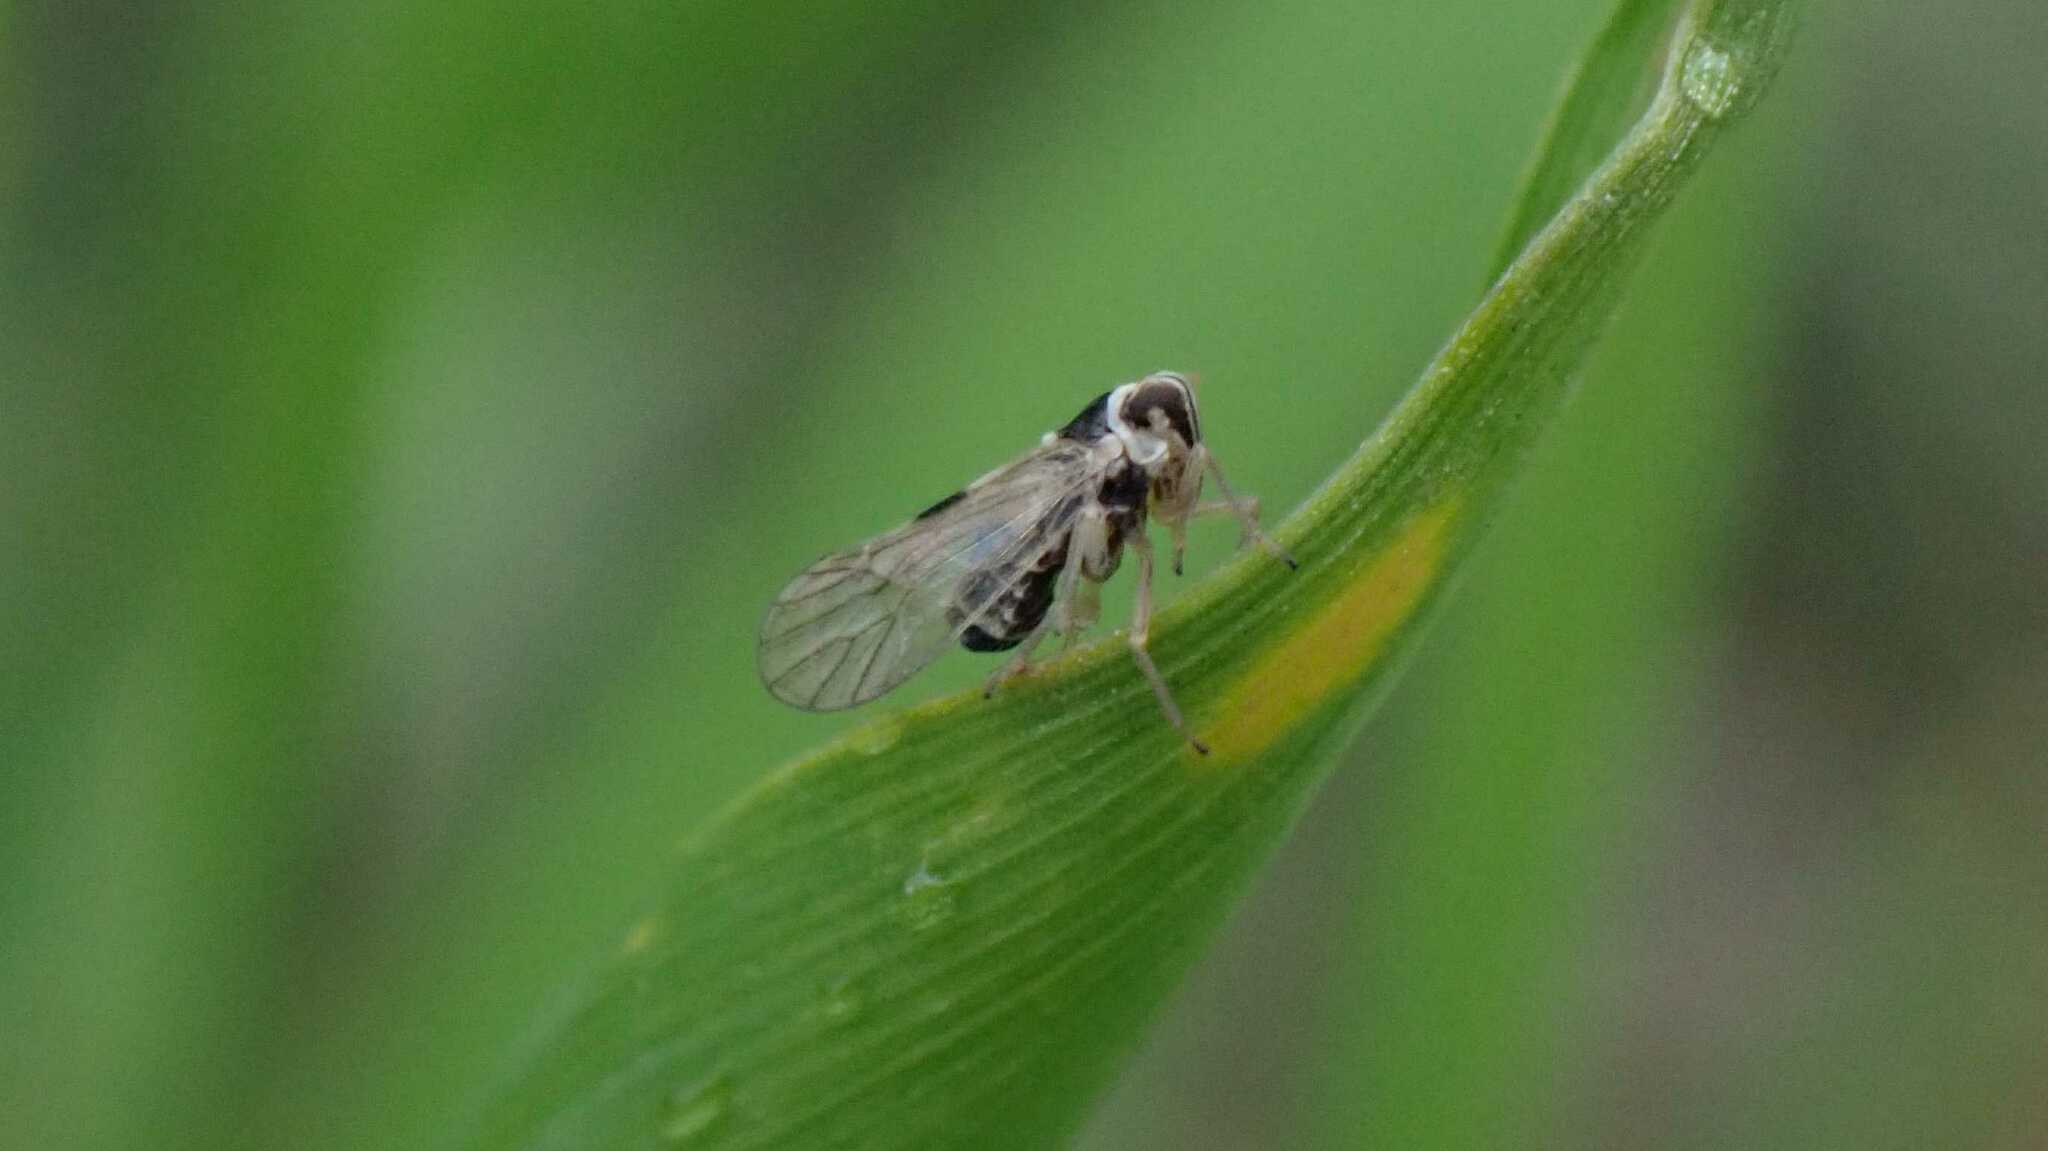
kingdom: Animalia
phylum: Arthropoda
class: Insecta
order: Hemiptera
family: Delphacidae
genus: Laodelphax
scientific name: Laodelphax striatellus
